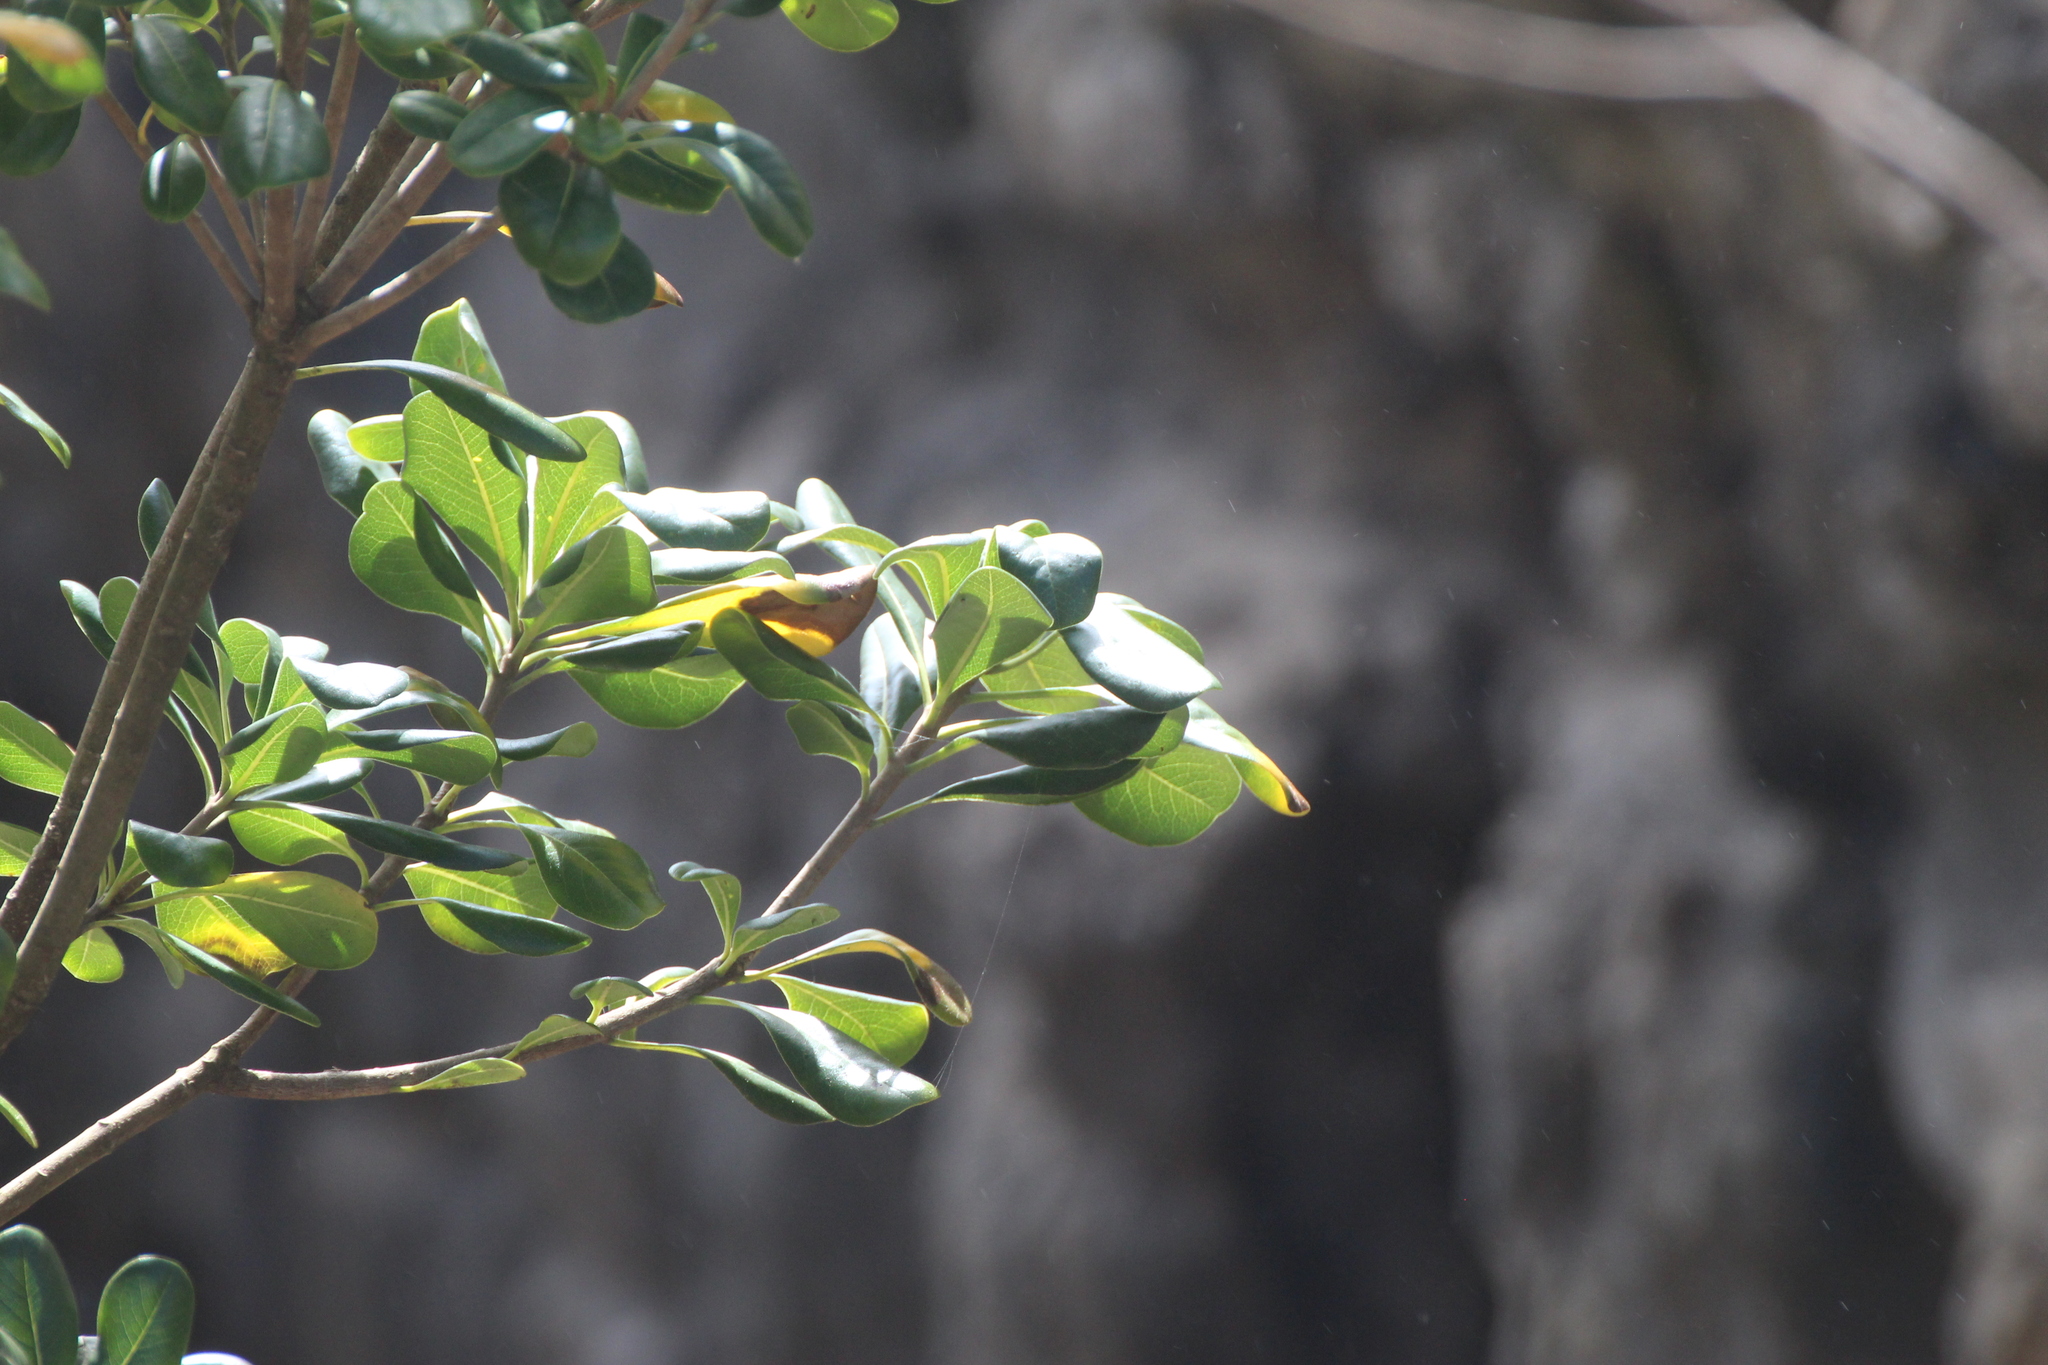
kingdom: Plantae
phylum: Tracheophyta
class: Magnoliopsida
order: Apiales
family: Pittosporaceae
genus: Pittosporum
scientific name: Pittosporum tobira
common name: Japanese cheesewood
